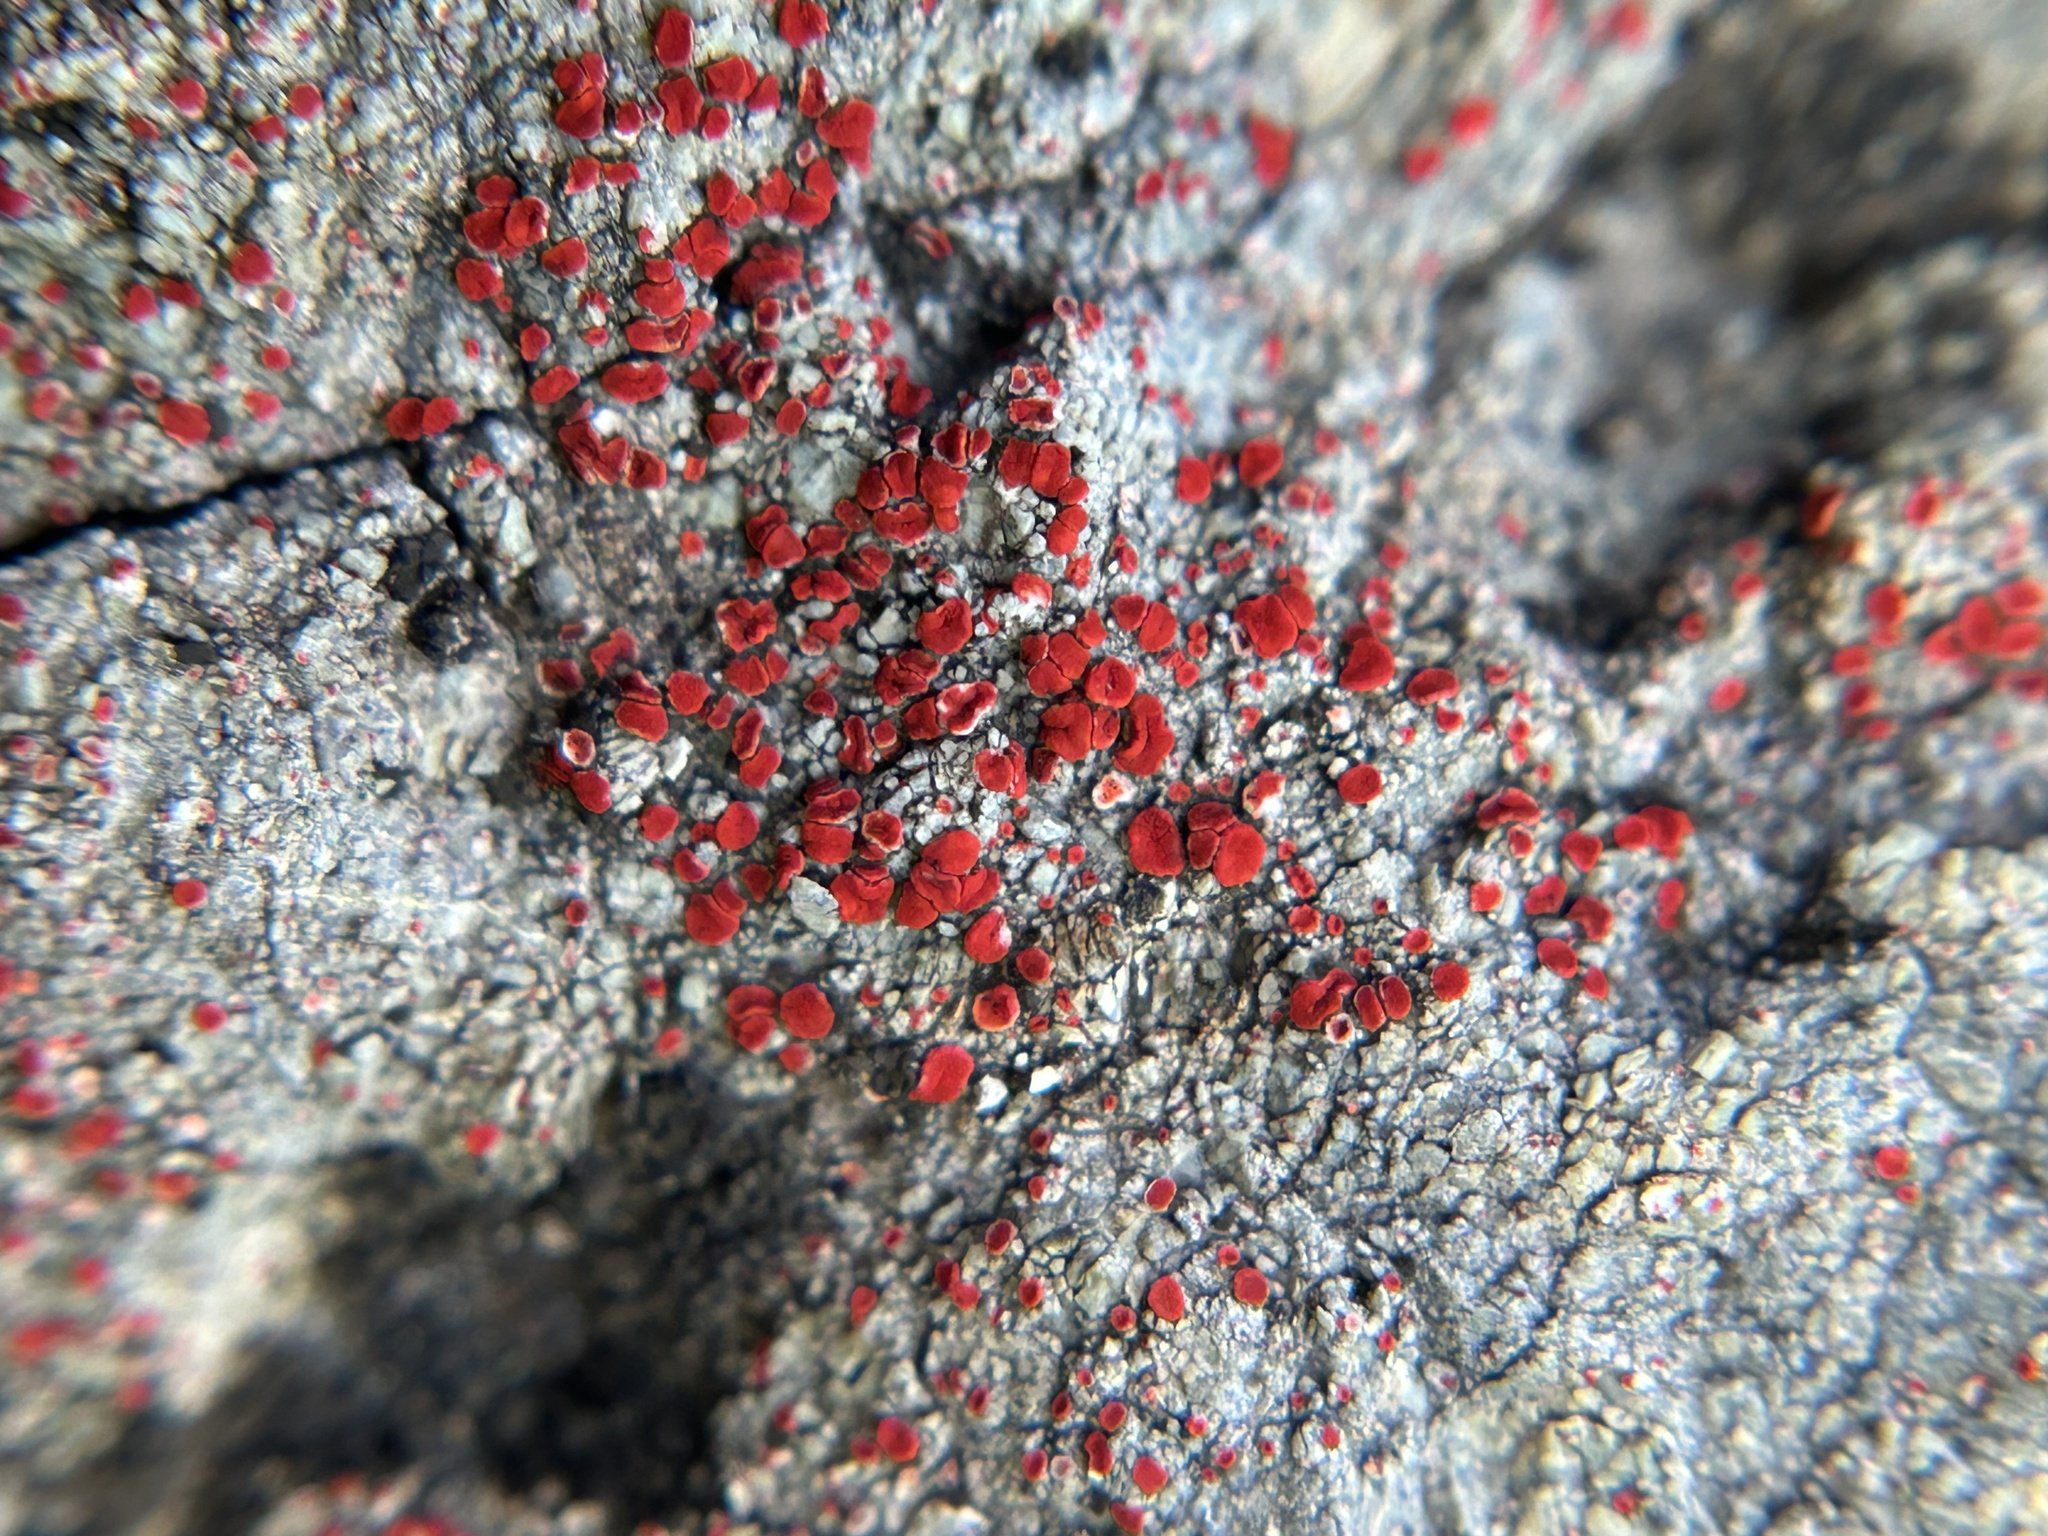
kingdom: Fungi
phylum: Ascomycota
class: Lecanoromycetes
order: Teloschistales
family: Teloschistaceae
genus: Tomnashia
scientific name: Tomnashia luteominia
